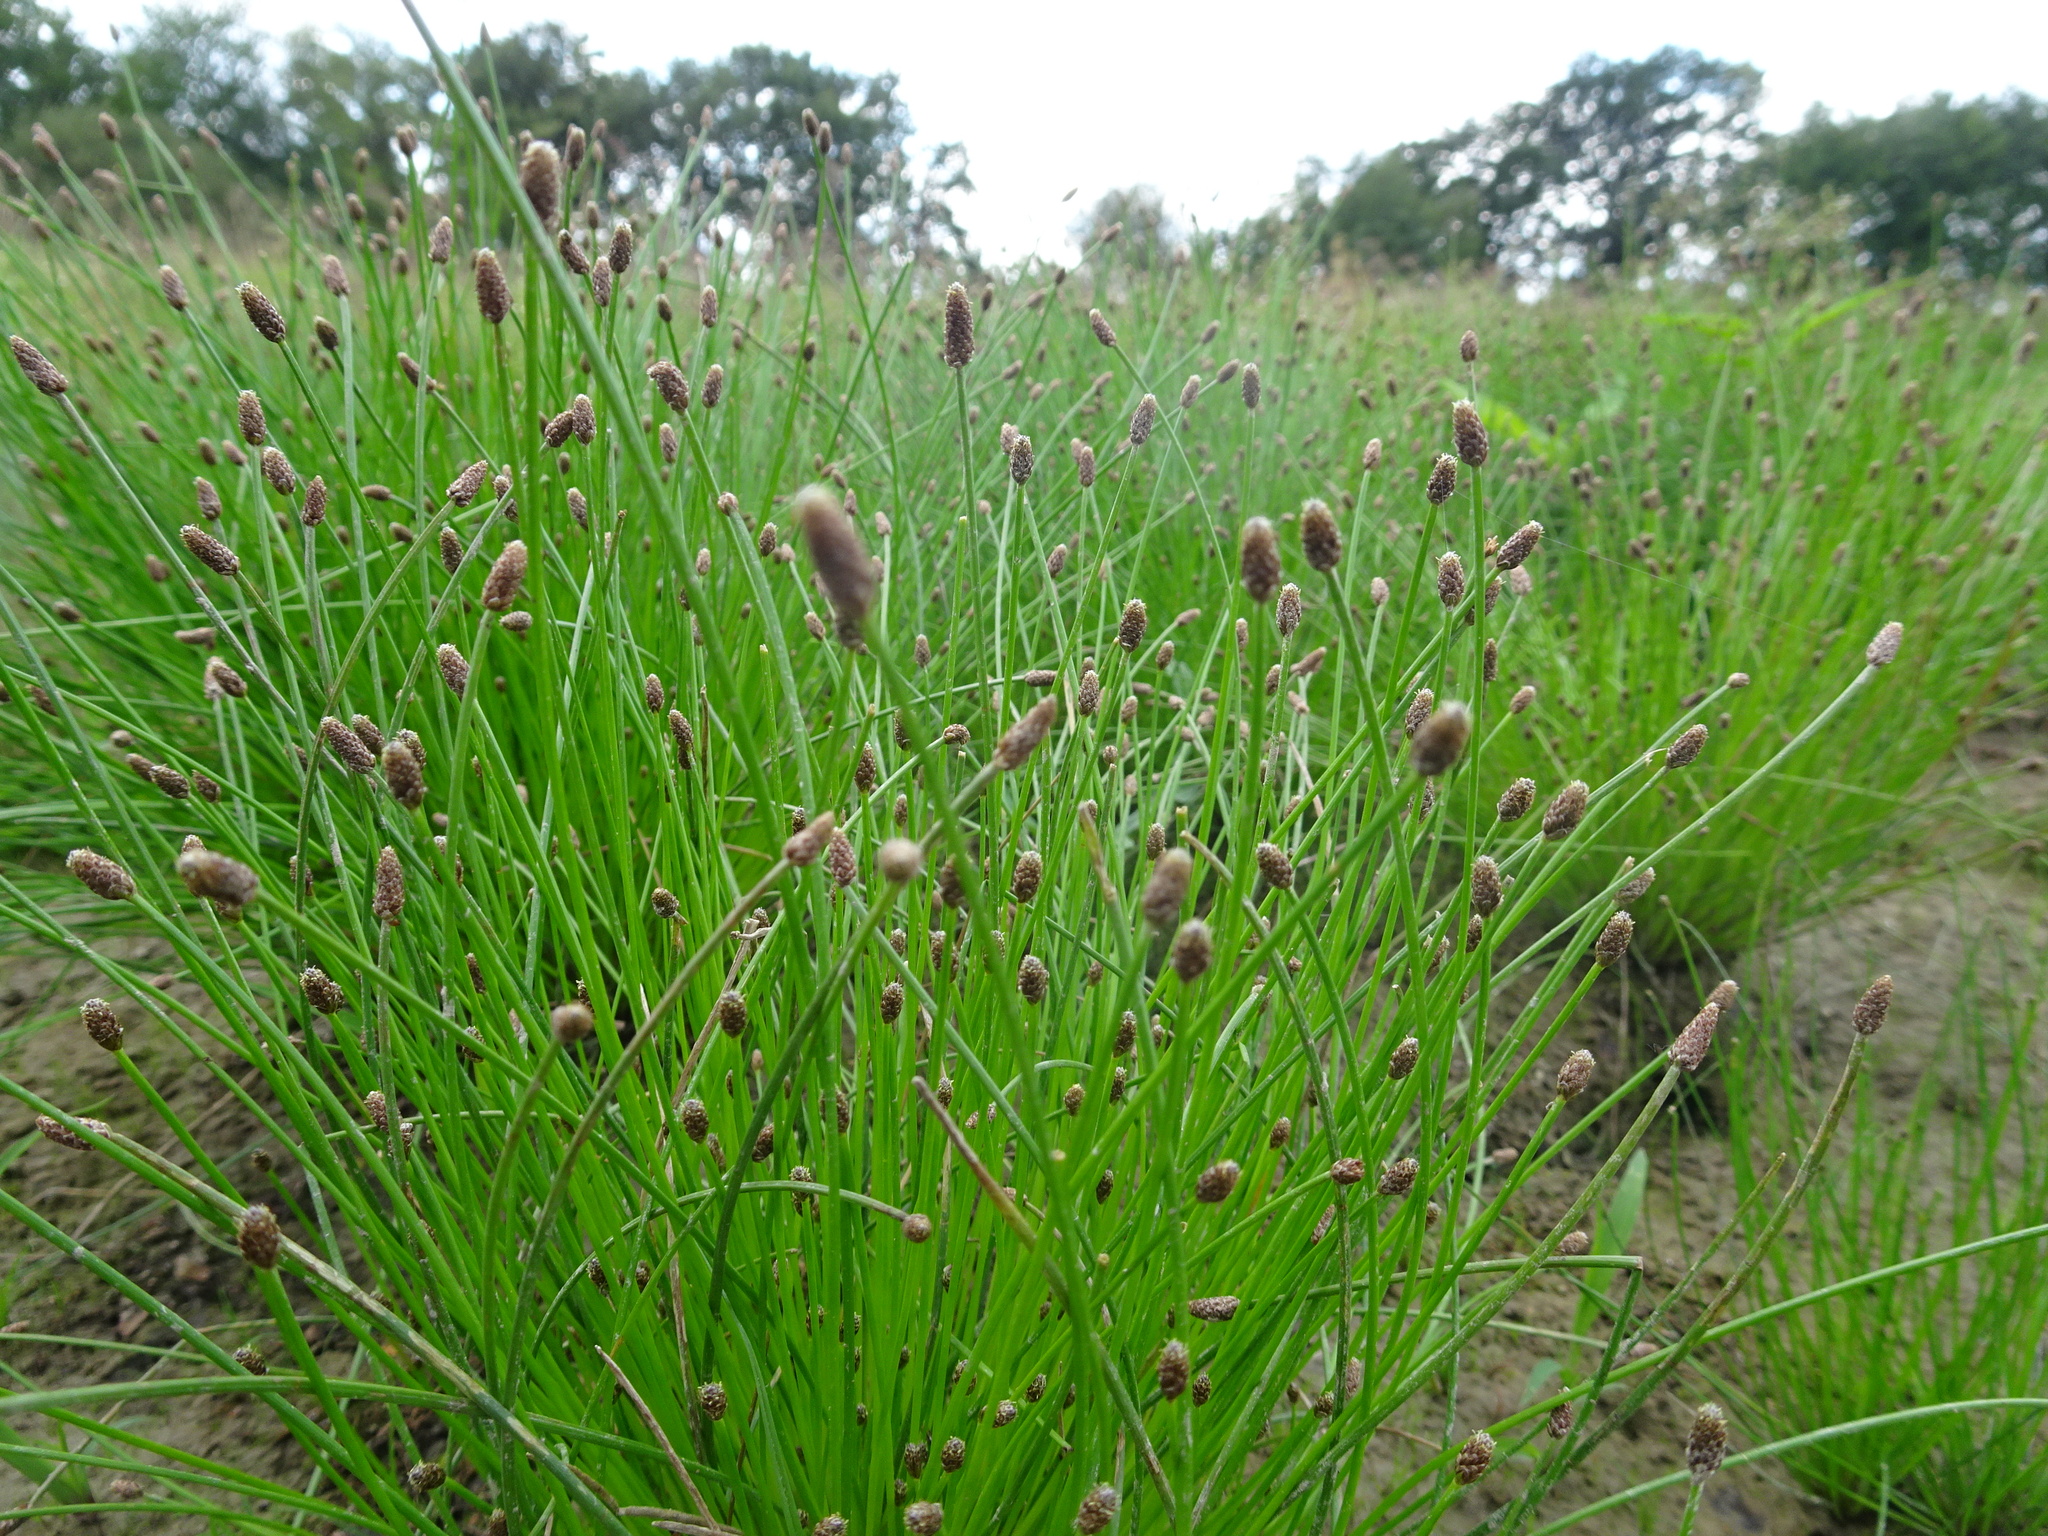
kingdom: Plantae
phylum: Tracheophyta
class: Liliopsida
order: Poales
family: Cyperaceae
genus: Eleocharis
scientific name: Eleocharis ovata
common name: Oval spike-rush
